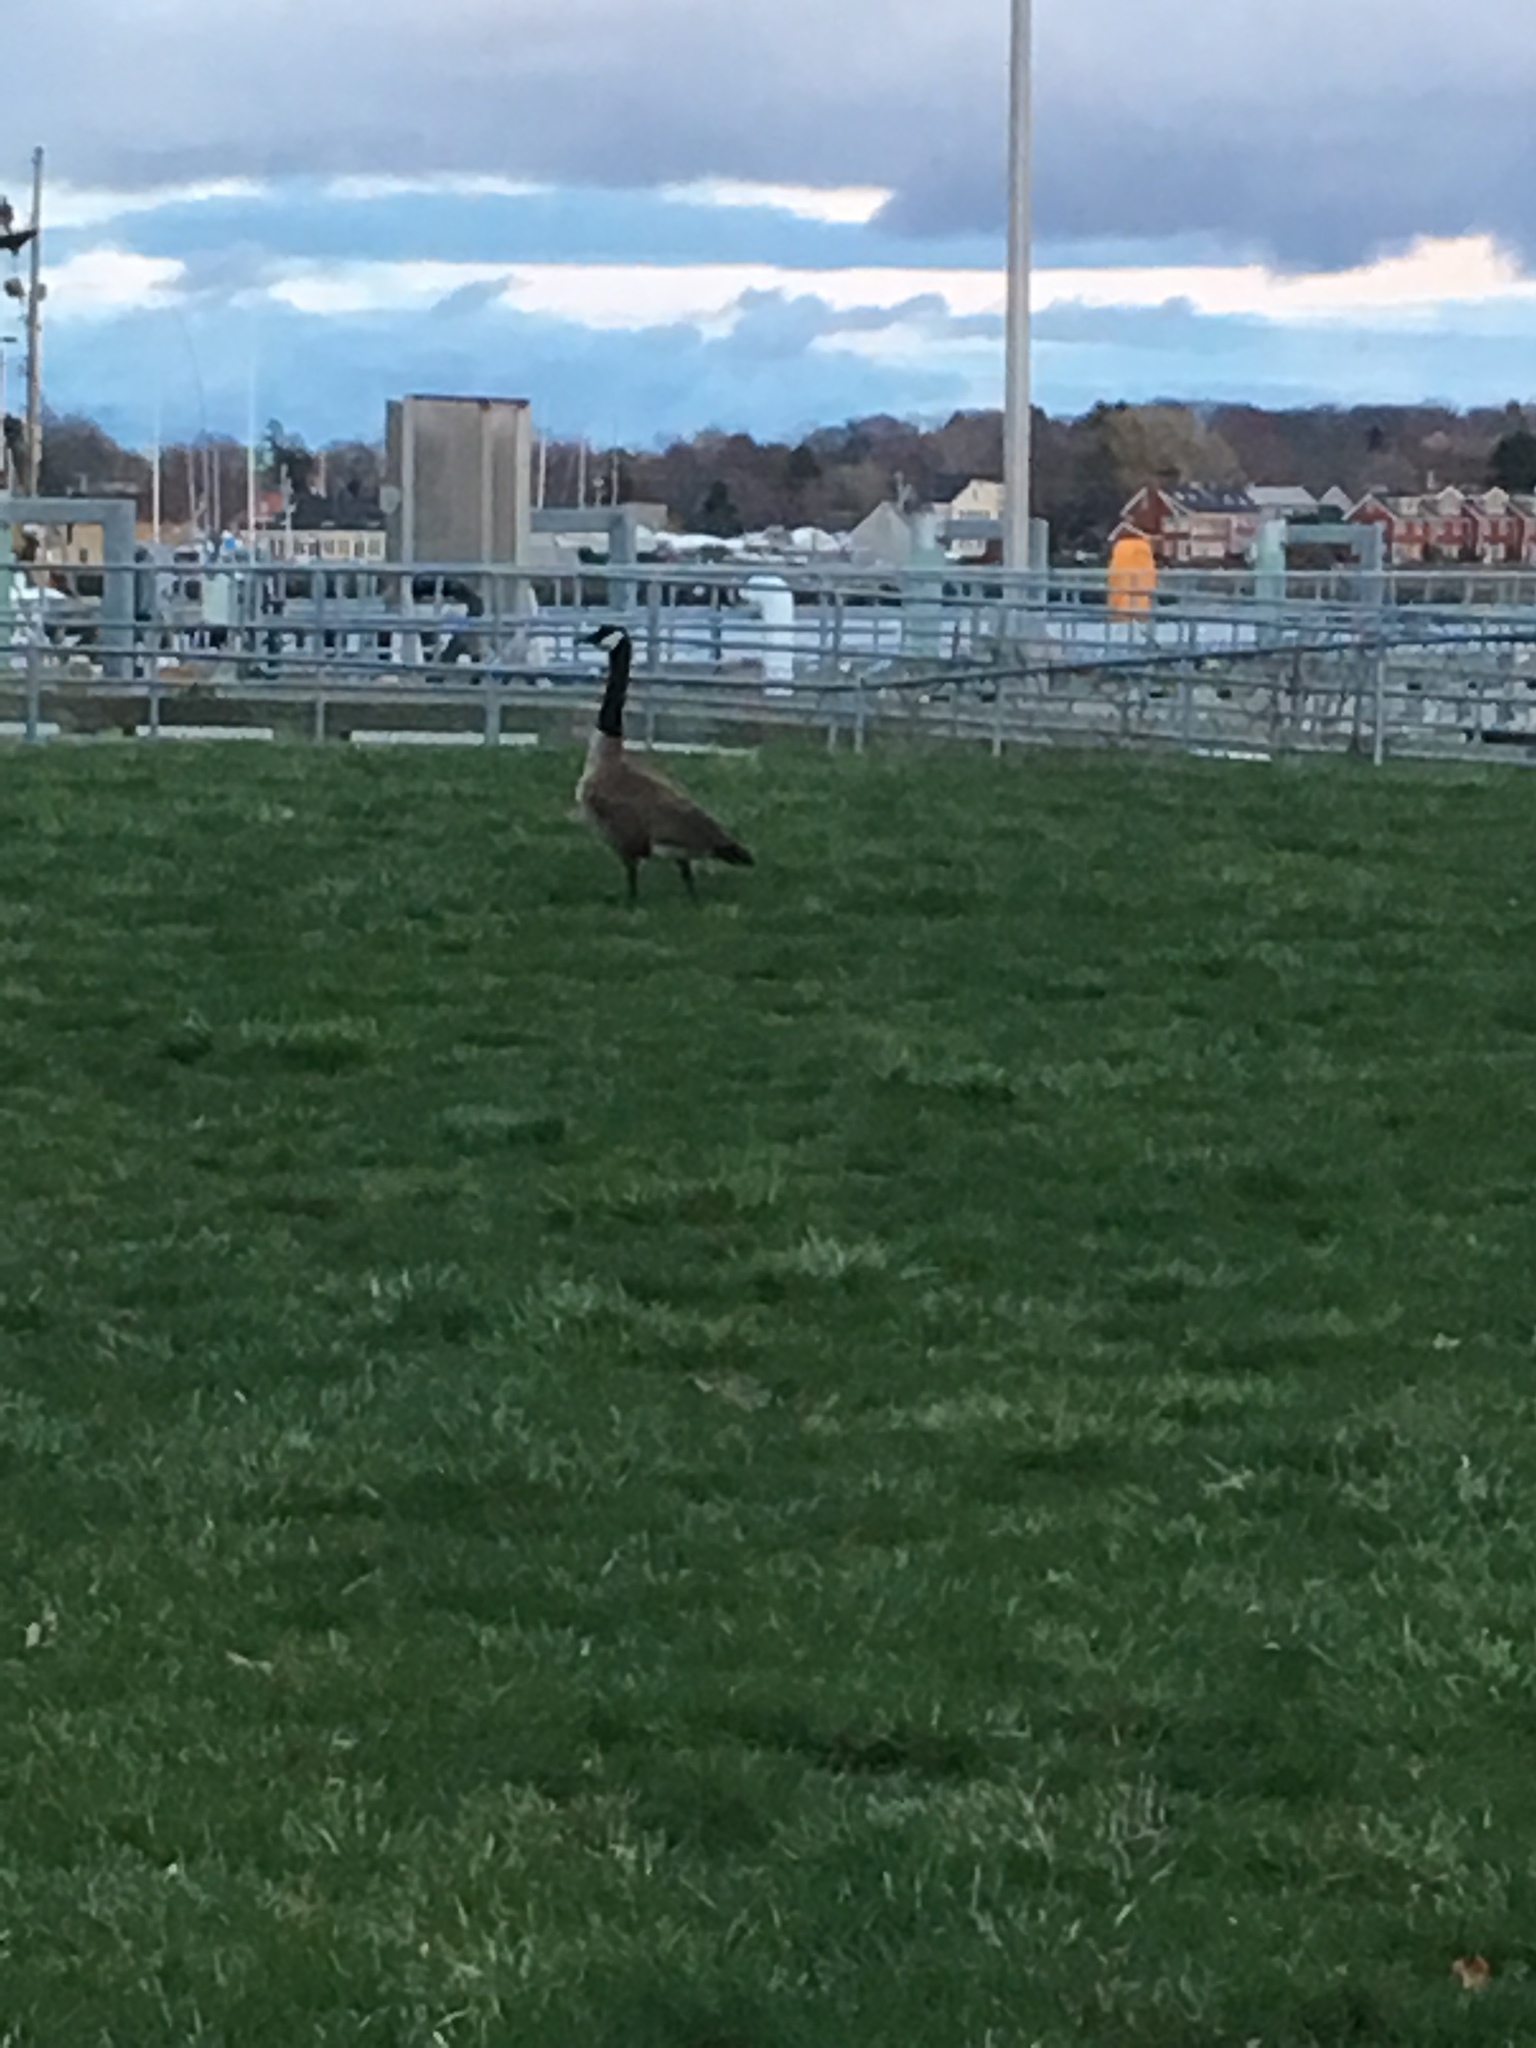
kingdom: Animalia
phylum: Chordata
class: Aves
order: Anseriformes
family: Anatidae
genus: Branta
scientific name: Branta canadensis
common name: Canada goose
